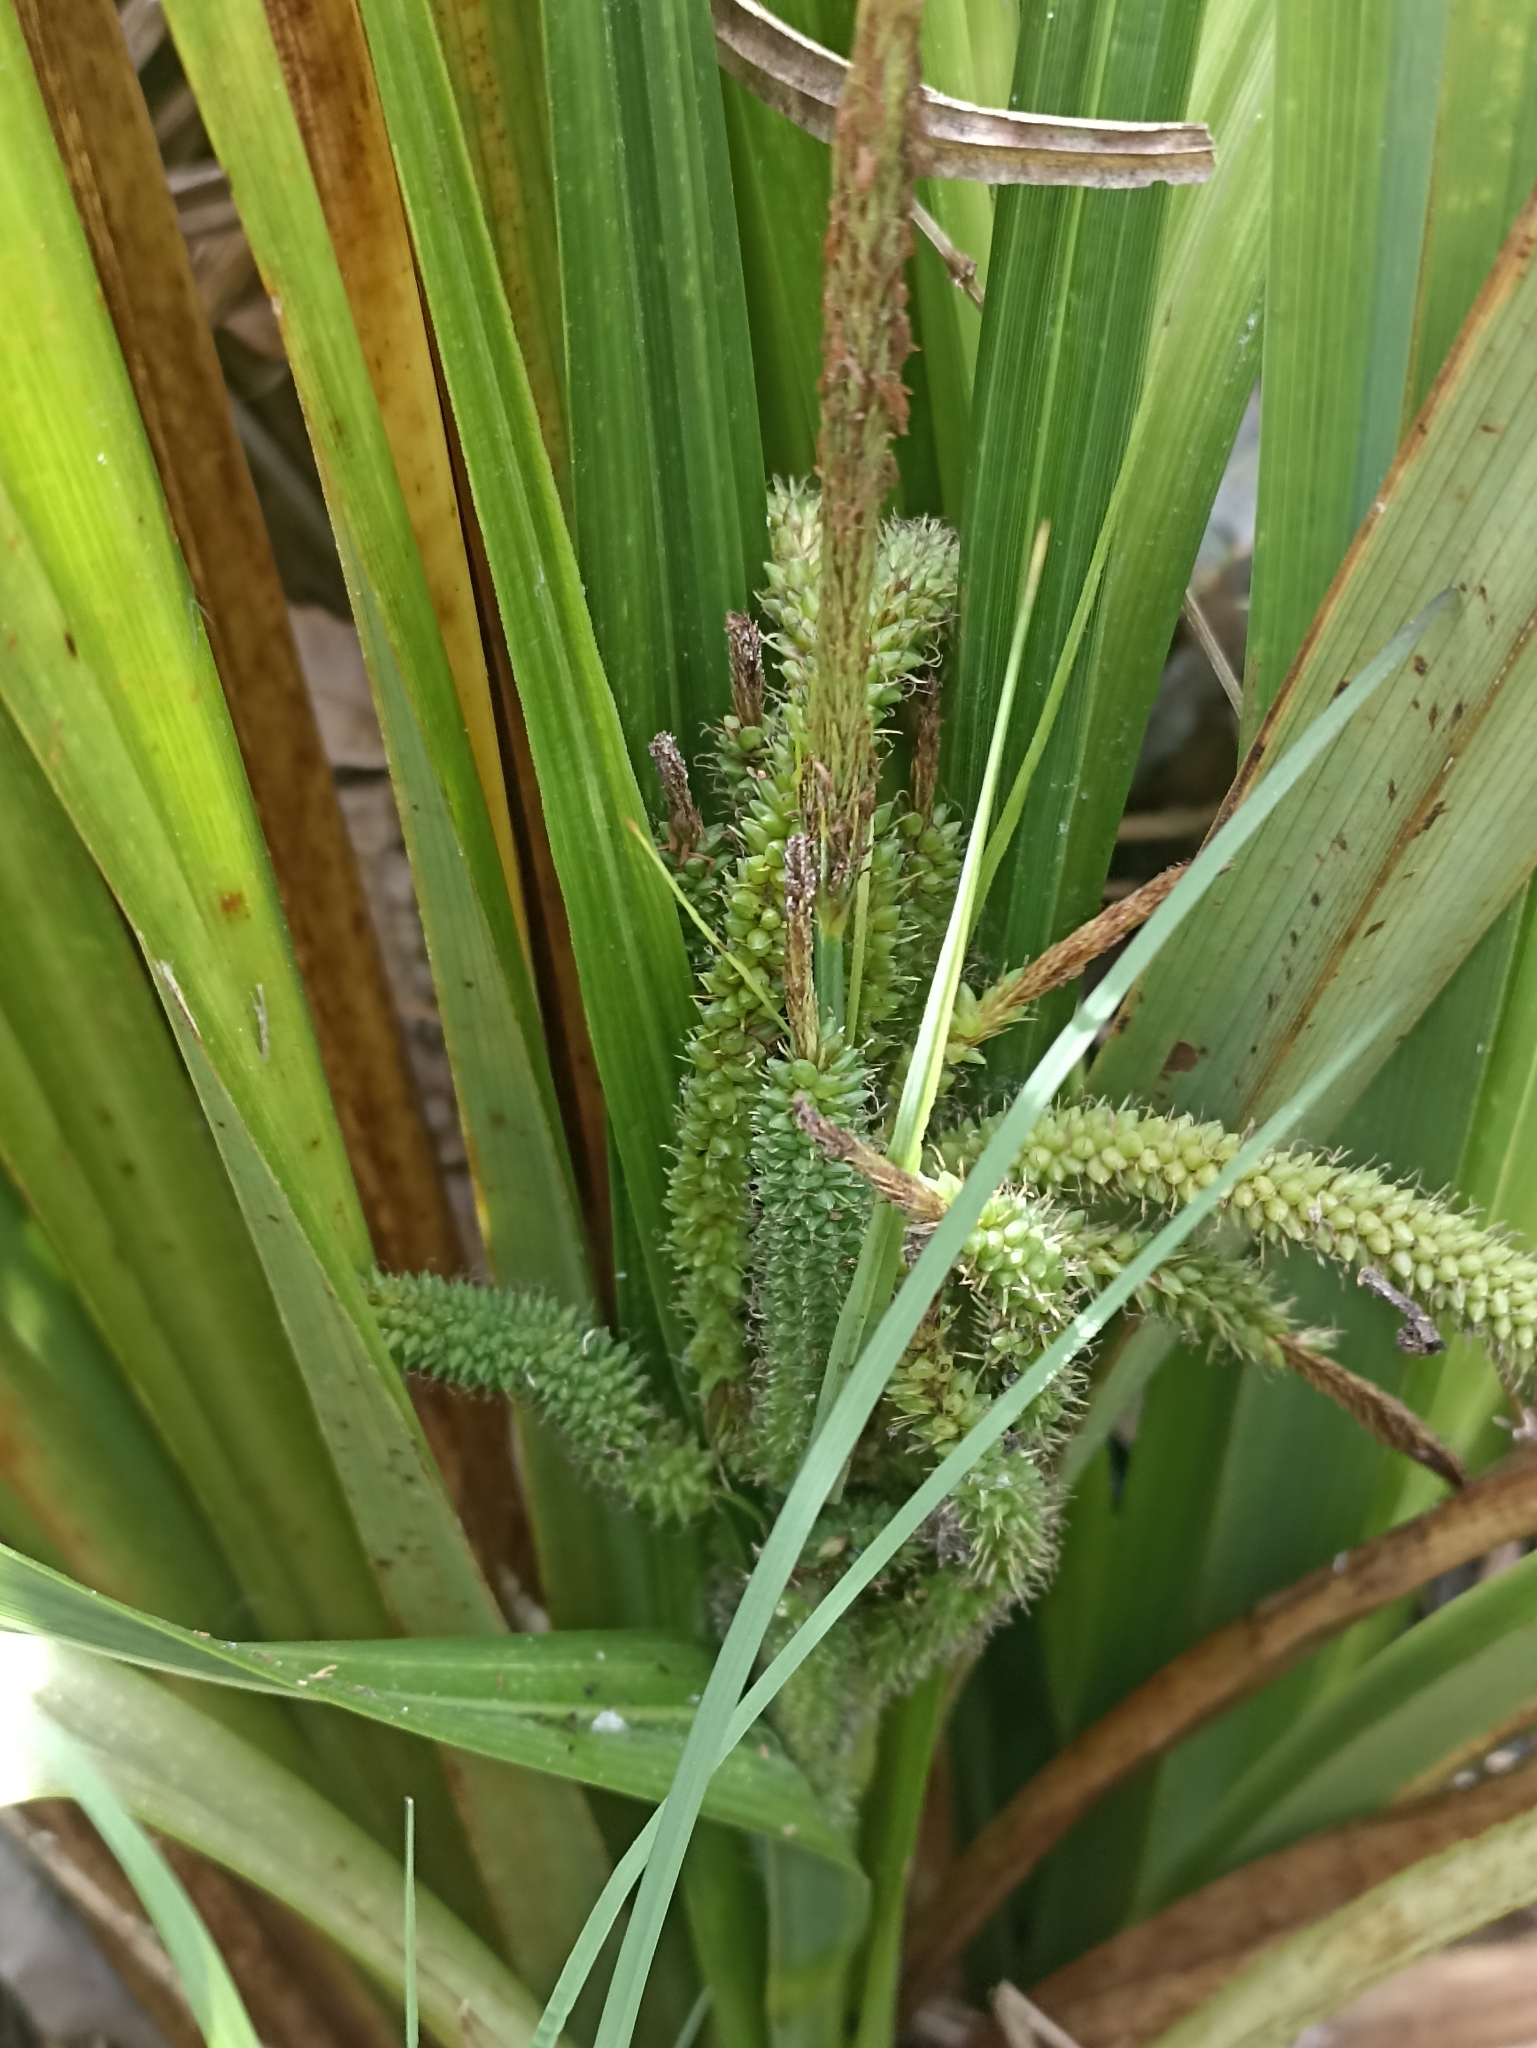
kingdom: Plantae
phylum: Tracheophyta
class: Liliopsida
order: Poales
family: Cyperaceae
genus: Carex
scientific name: Carex lessoniana
